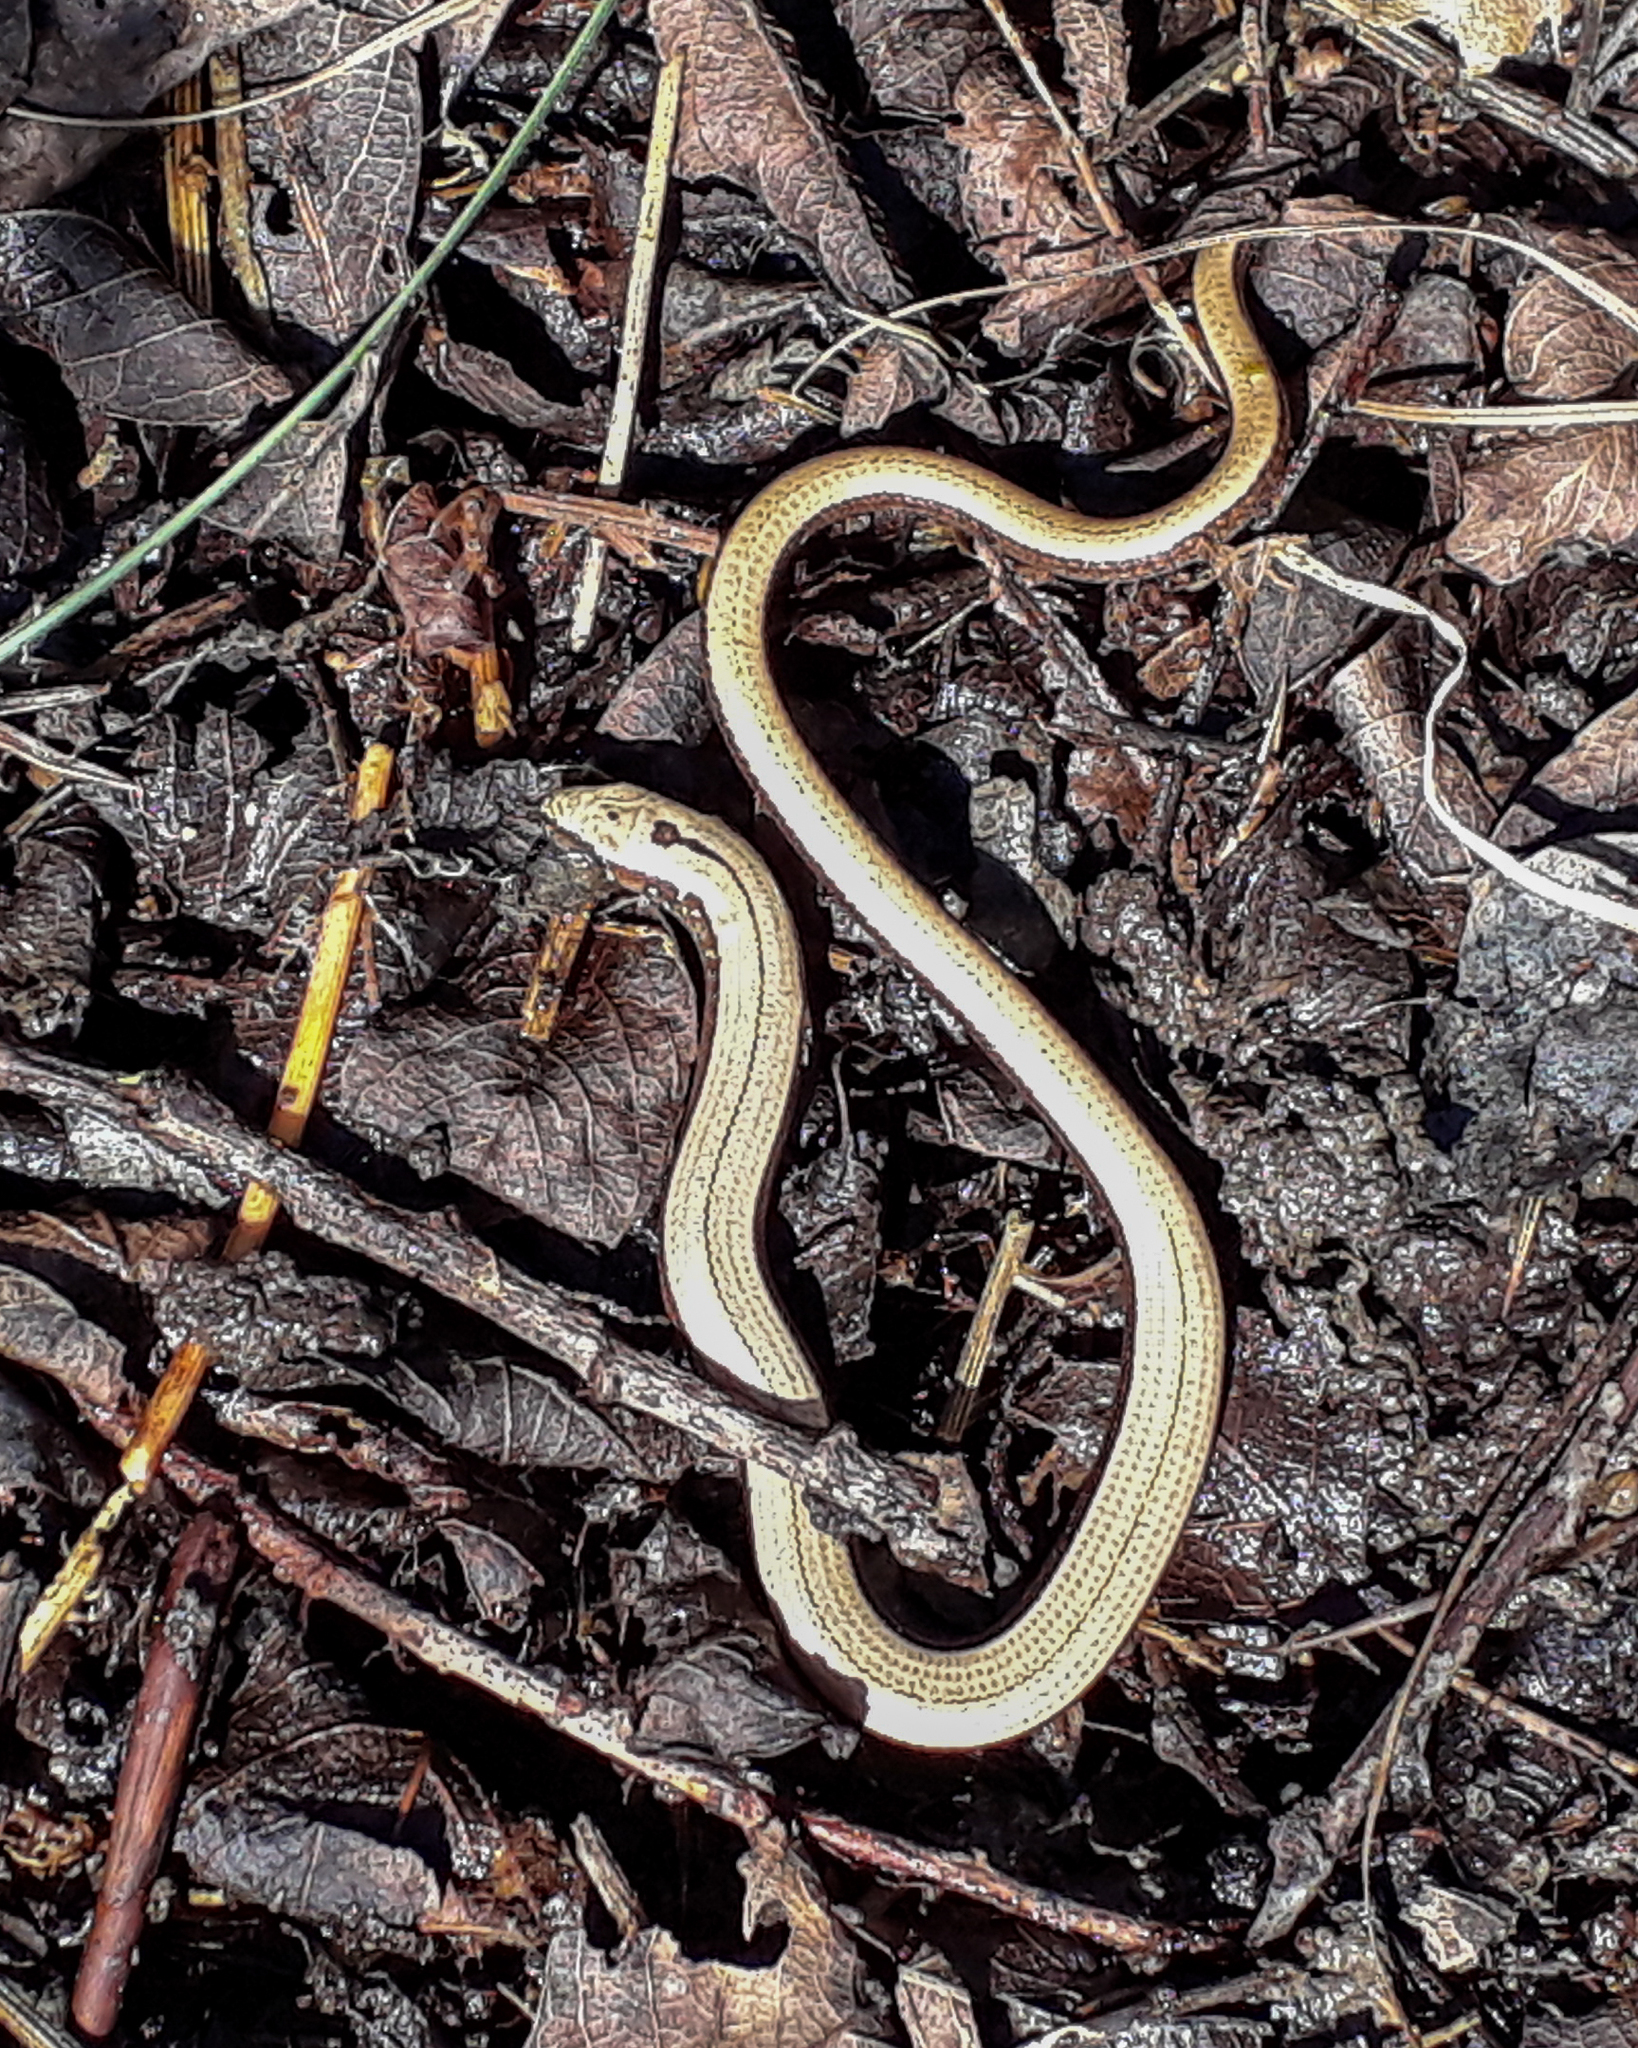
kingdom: Animalia
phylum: Chordata
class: Squamata
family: Anguidae
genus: Anguis
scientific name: Anguis fragilis
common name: Slow worm
